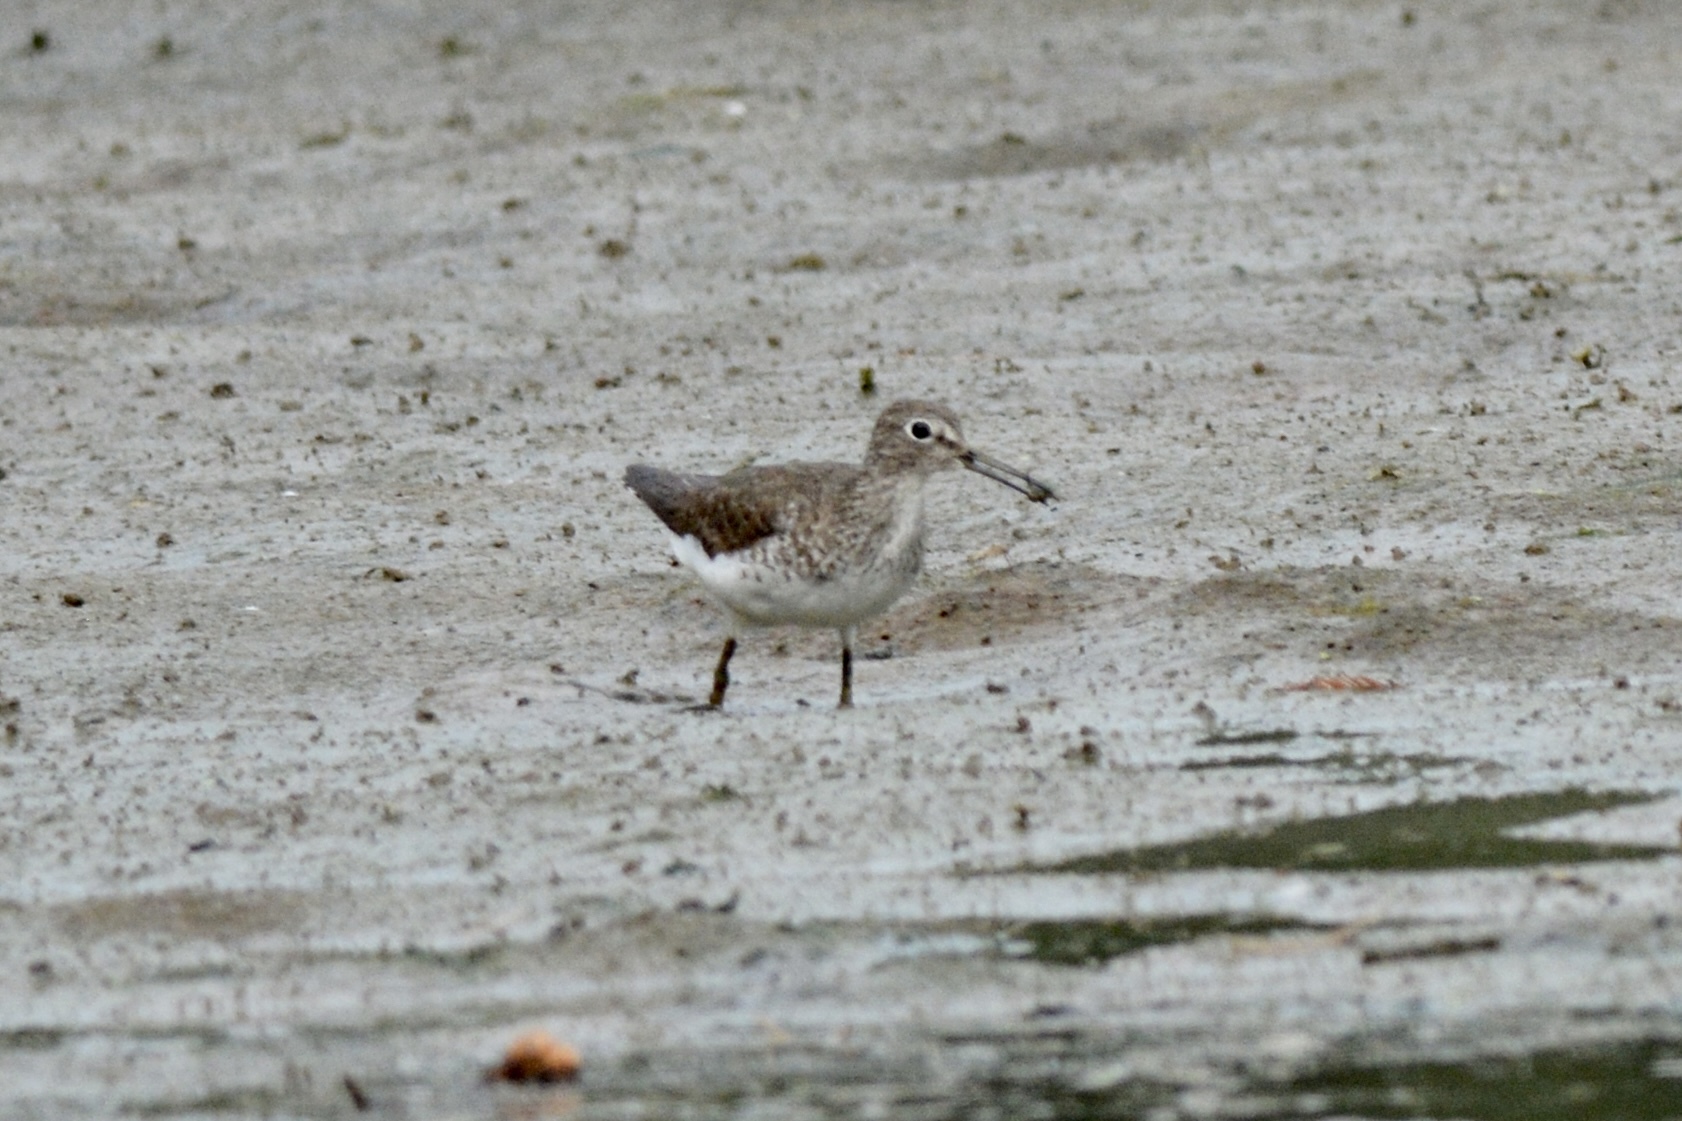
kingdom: Animalia
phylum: Chordata
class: Aves
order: Charadriiformes
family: Scolopacidae
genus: Tringa
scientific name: Tringa solitaria
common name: Solitary sandpiper
